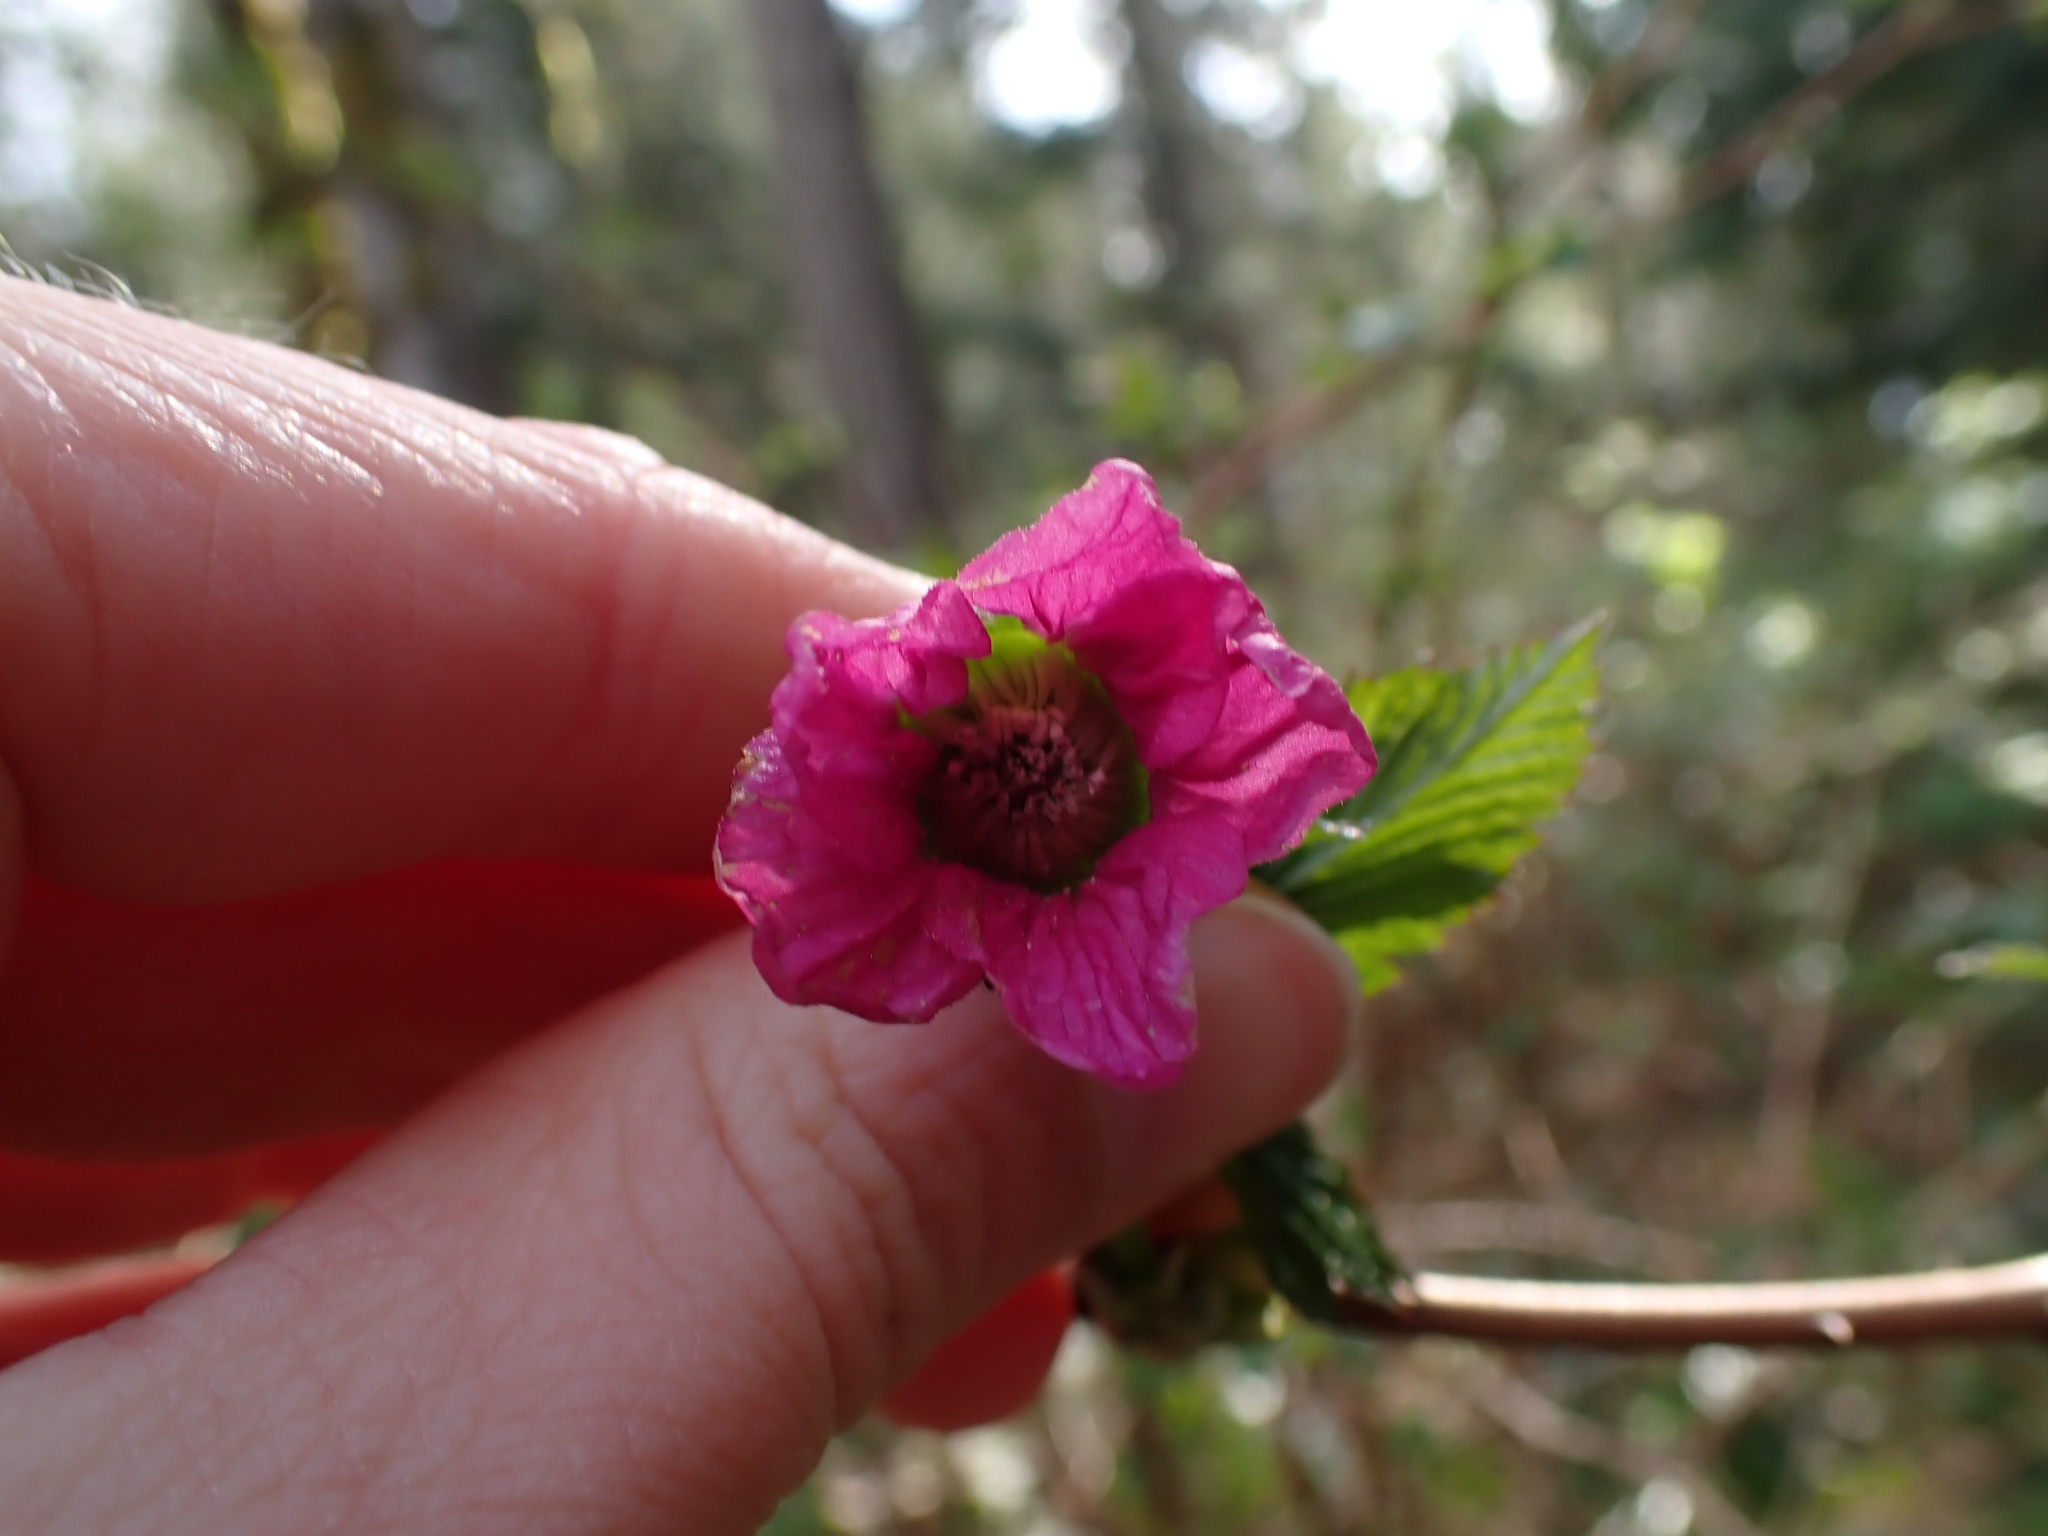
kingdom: Plantae
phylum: Tracheophyta
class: Magnoliopsida
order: Rosales
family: Rosaceae
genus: Rubus
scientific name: Rubus spectabilis
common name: Salmonberry
